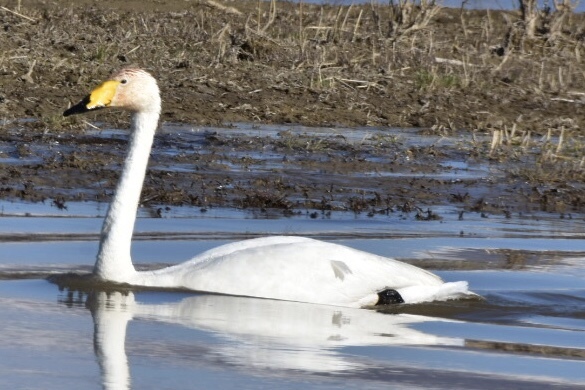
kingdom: Animalia
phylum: Chordata
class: Aves
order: Anseriformes
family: Anatidae
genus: Cygnus
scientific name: Cygnus cygnus
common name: Whooper swan
